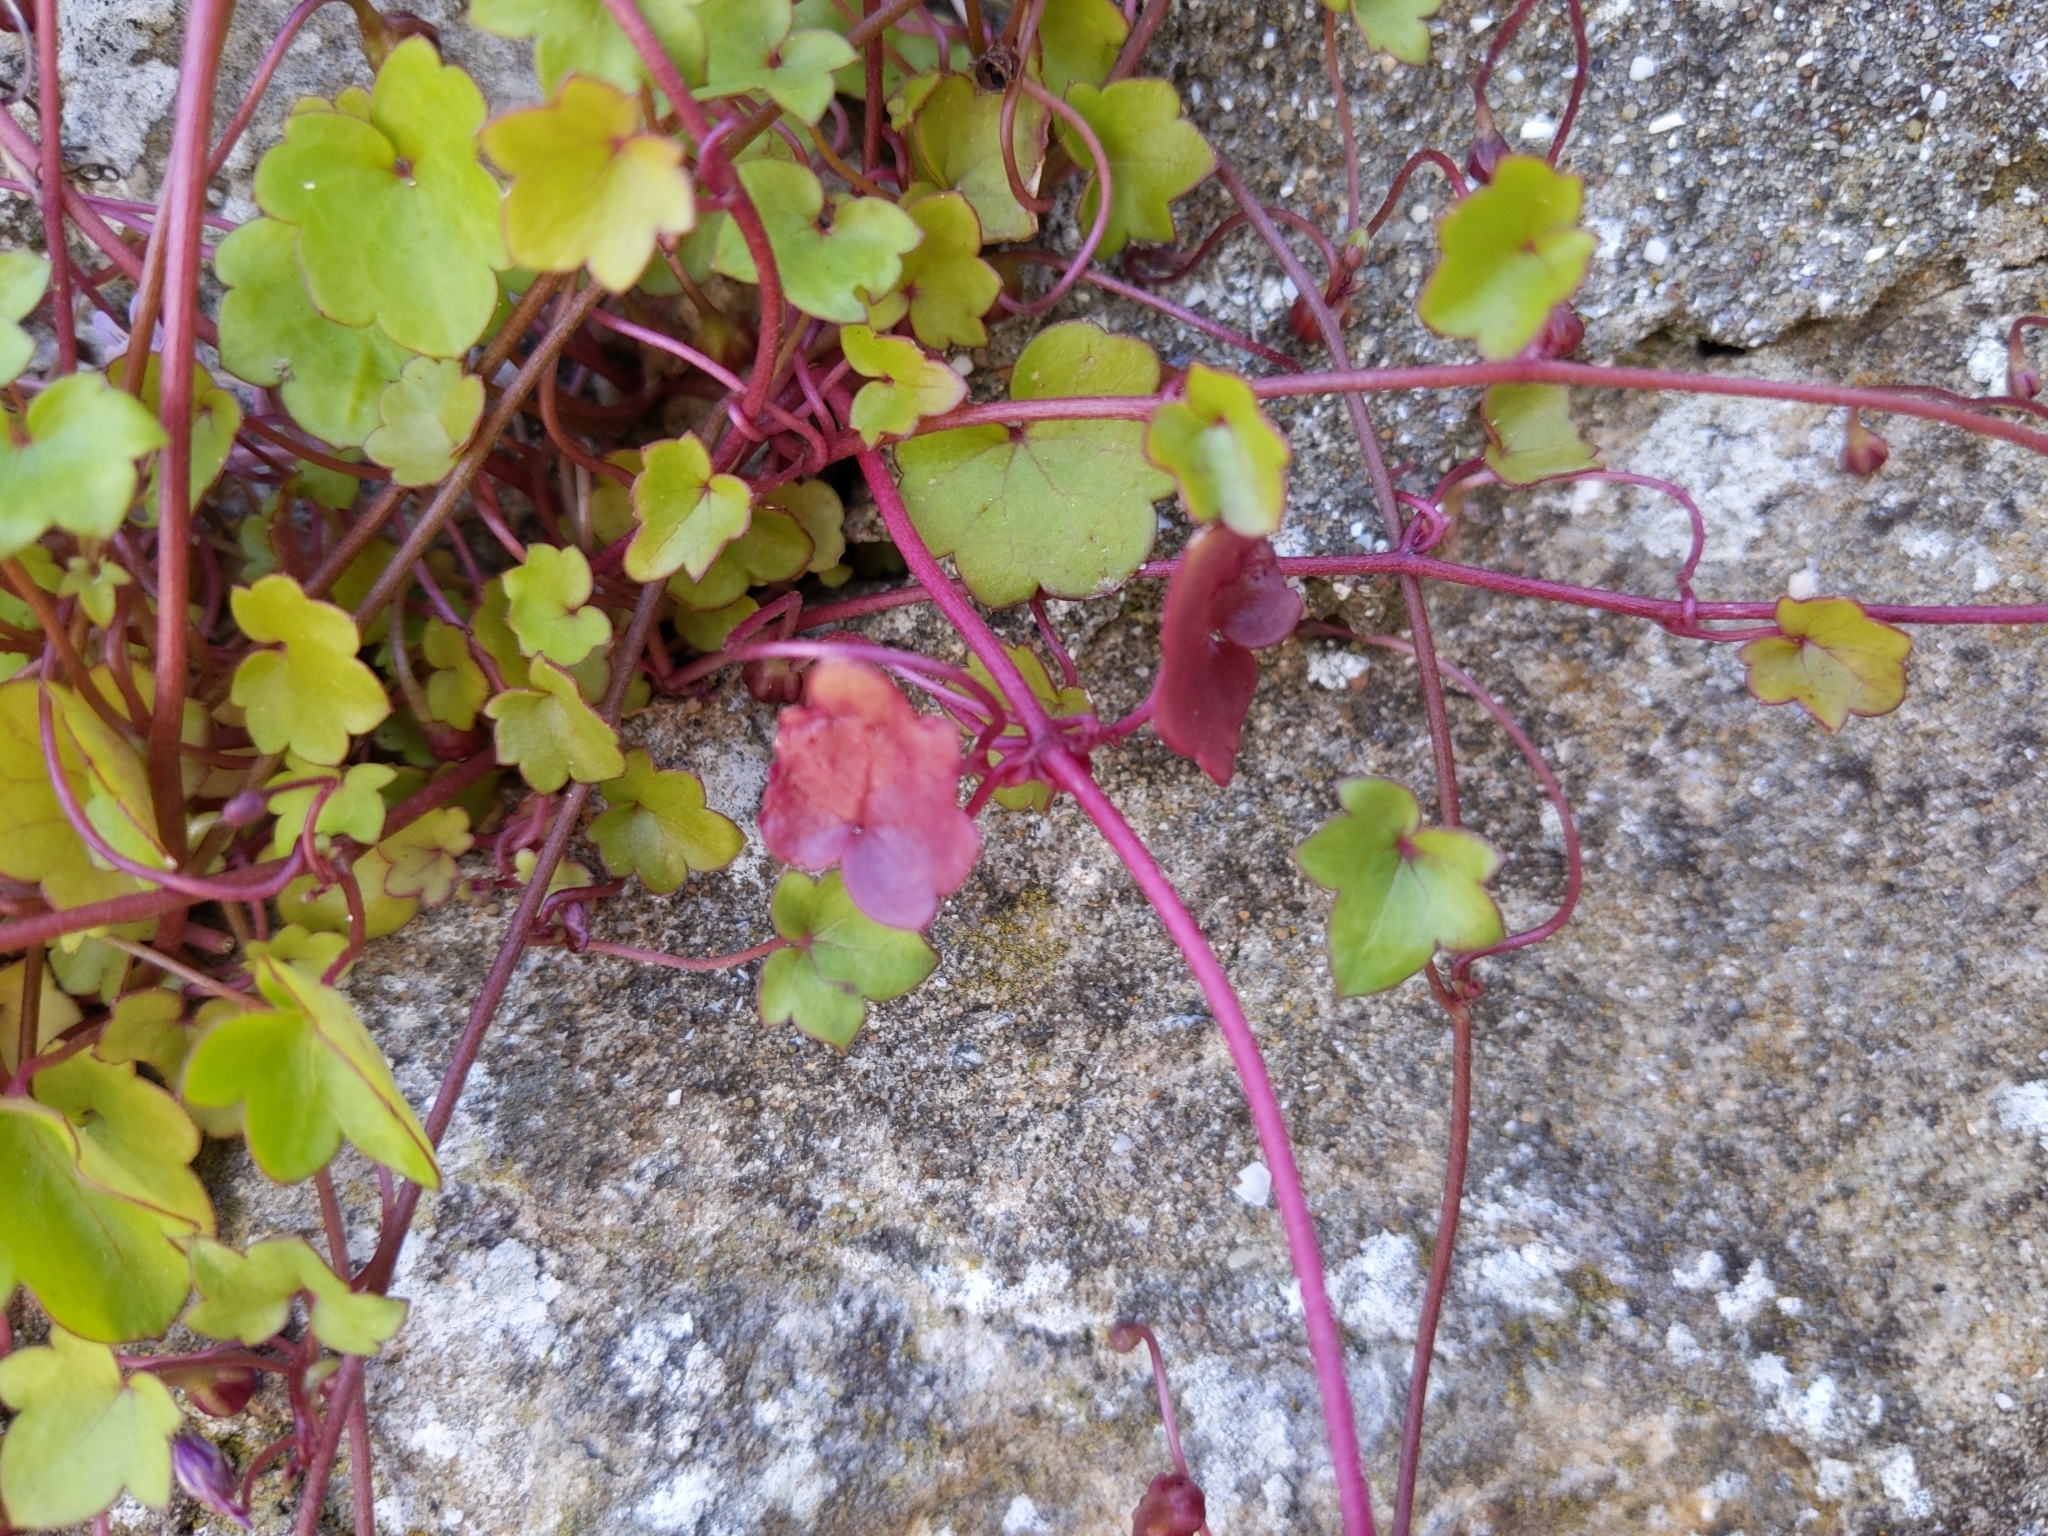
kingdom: Plantae
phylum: Tracheophyta
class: Magnoliopsida
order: Lamiales
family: Plantaginaceae
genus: Cymbalaria
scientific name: Cymbalaria muralis
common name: Ivy-leaved toadflax
